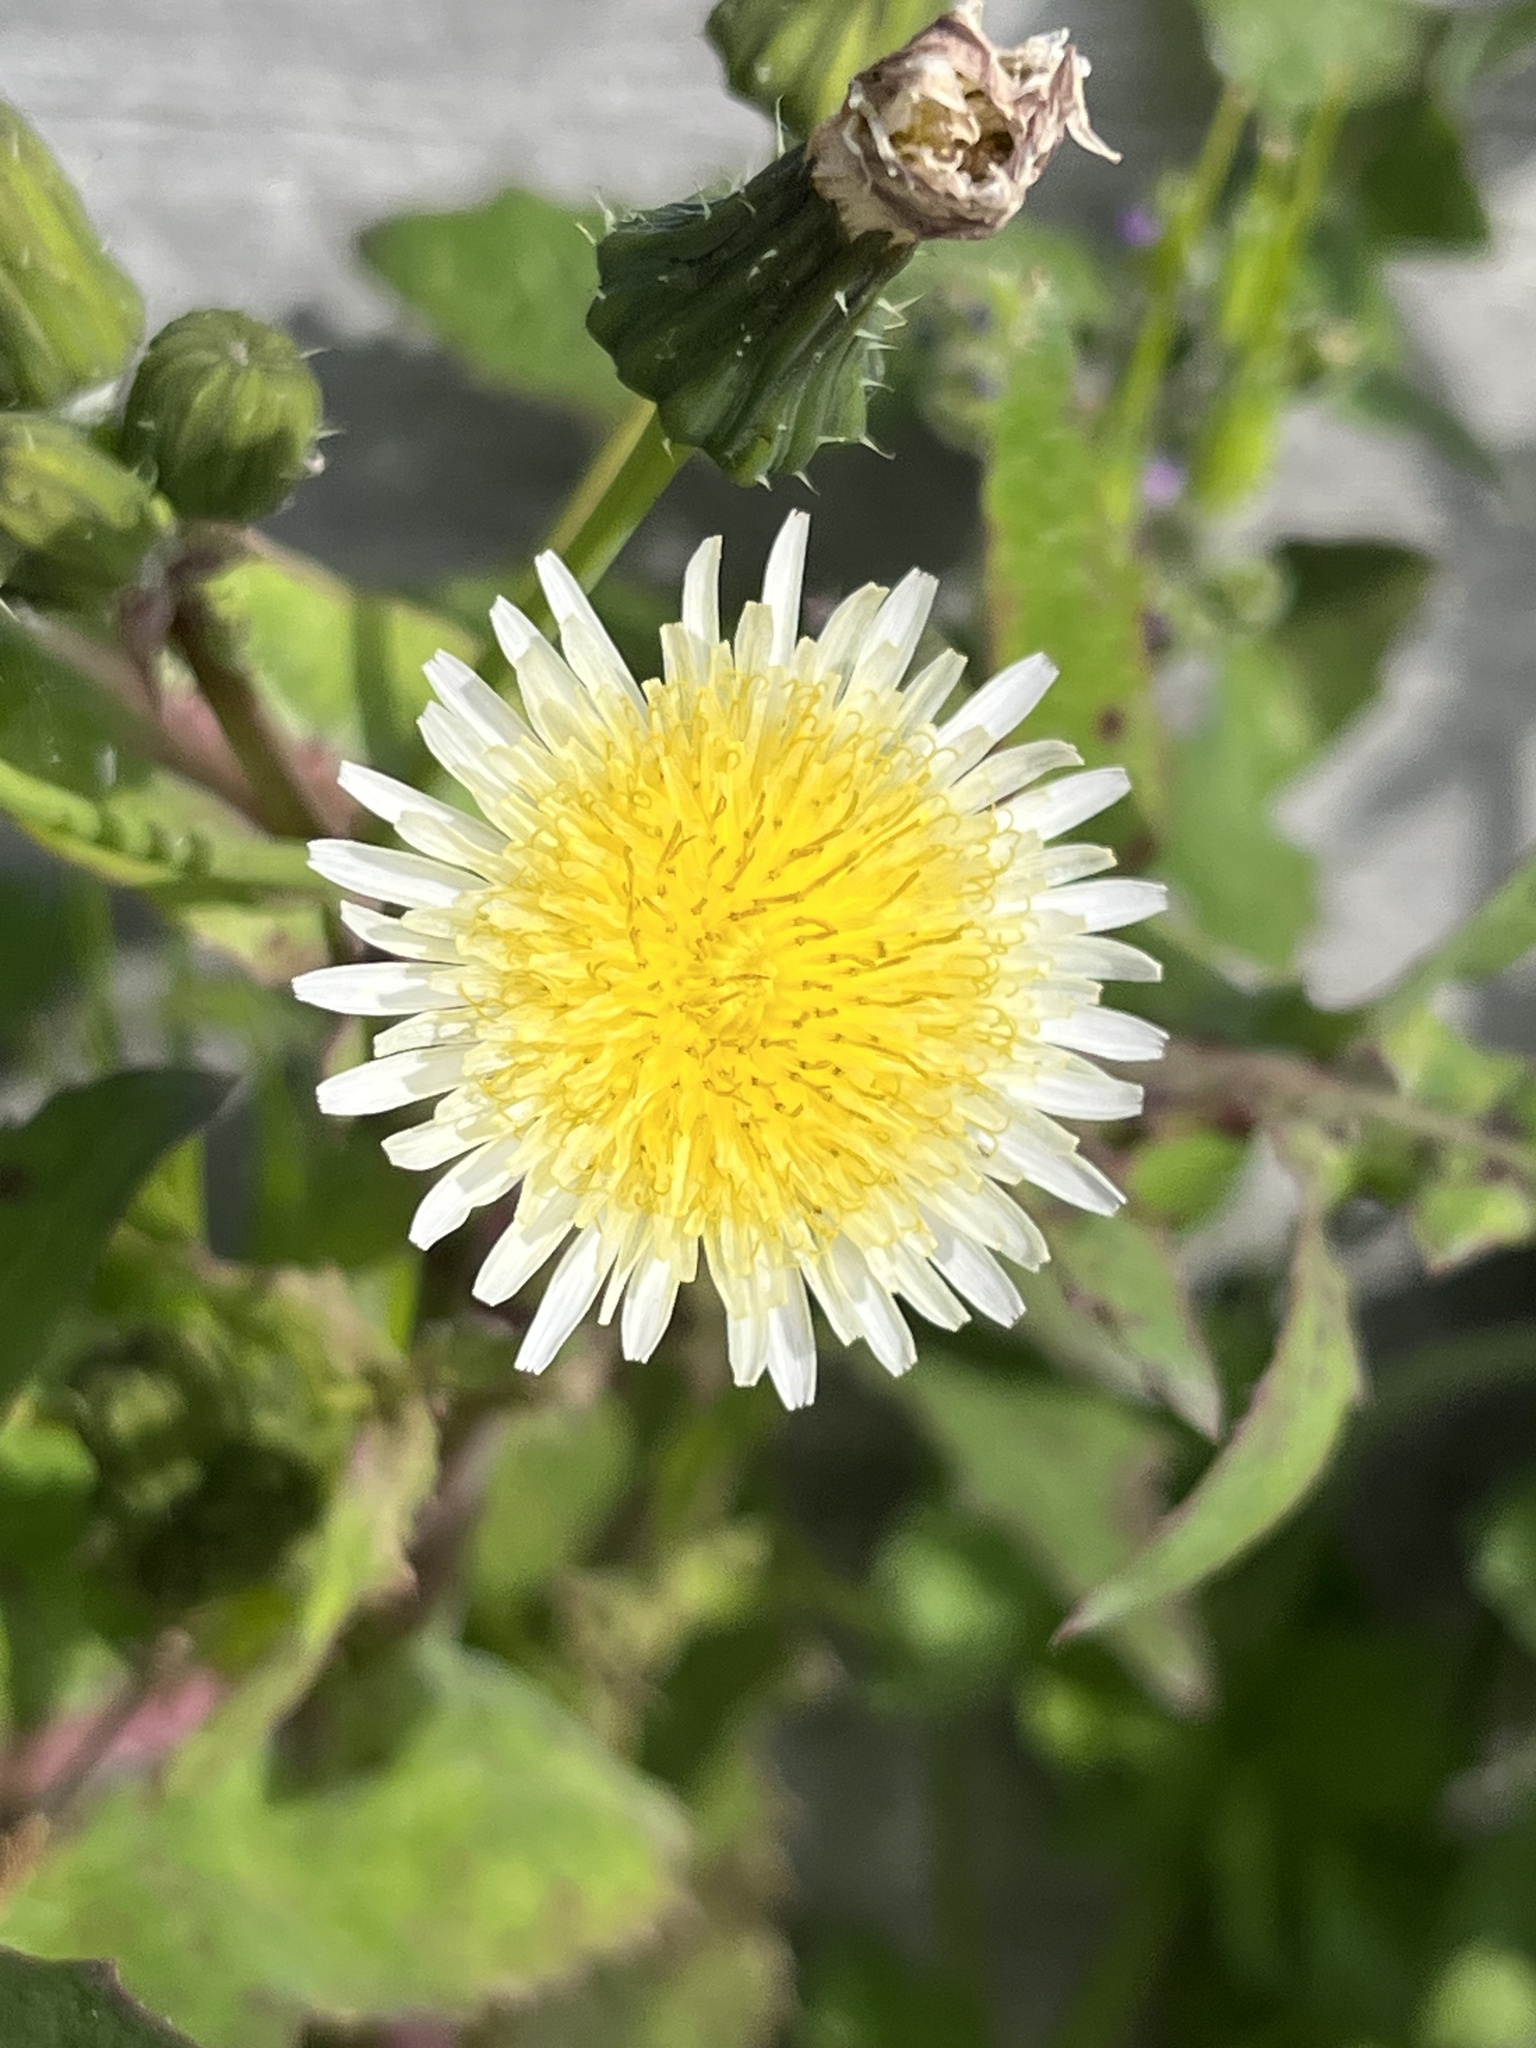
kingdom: Plantae
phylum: Tracheophyta
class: Magnoliopsida
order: Asterales
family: Asteraceae
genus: Sonchus
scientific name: Sonchus oleraceus
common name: Common sowthistle
